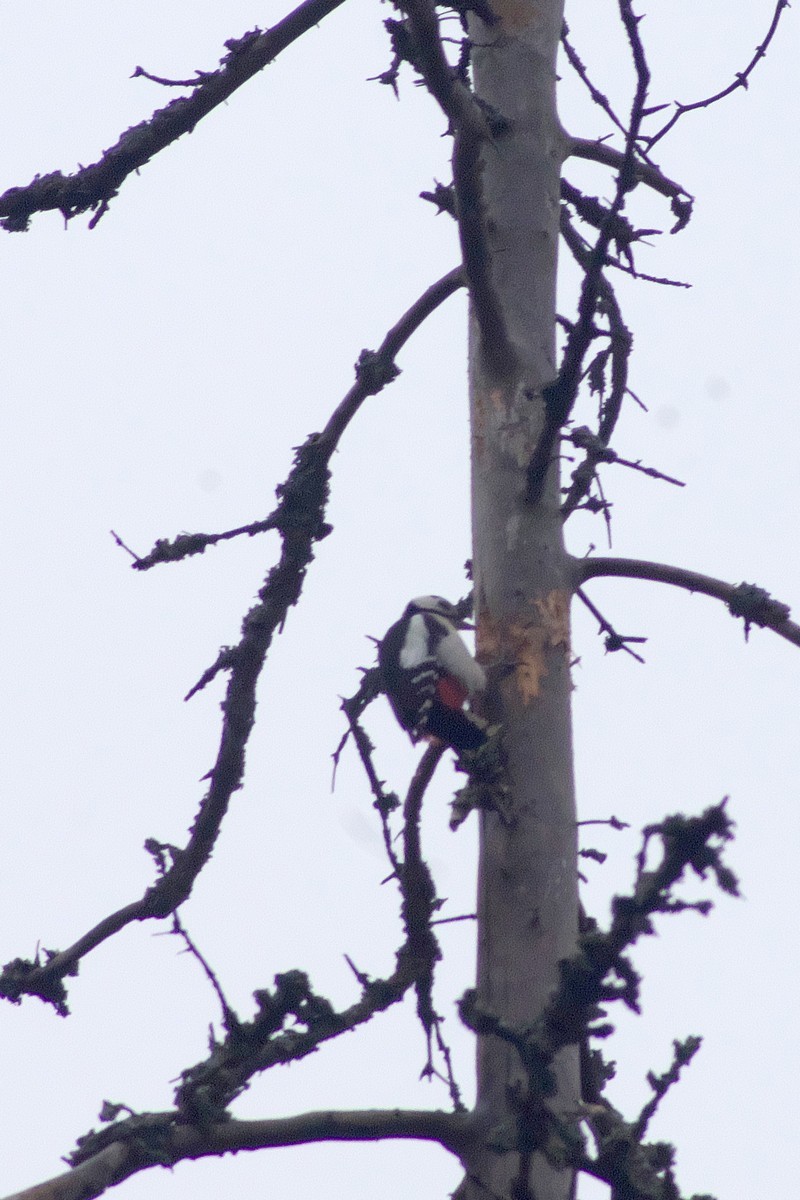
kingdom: Animalia
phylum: Chordata
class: Aves
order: Piciformes
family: Picidae
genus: Dendrocopos
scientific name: Dendrocopos major
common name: Great spotted woodpecker
